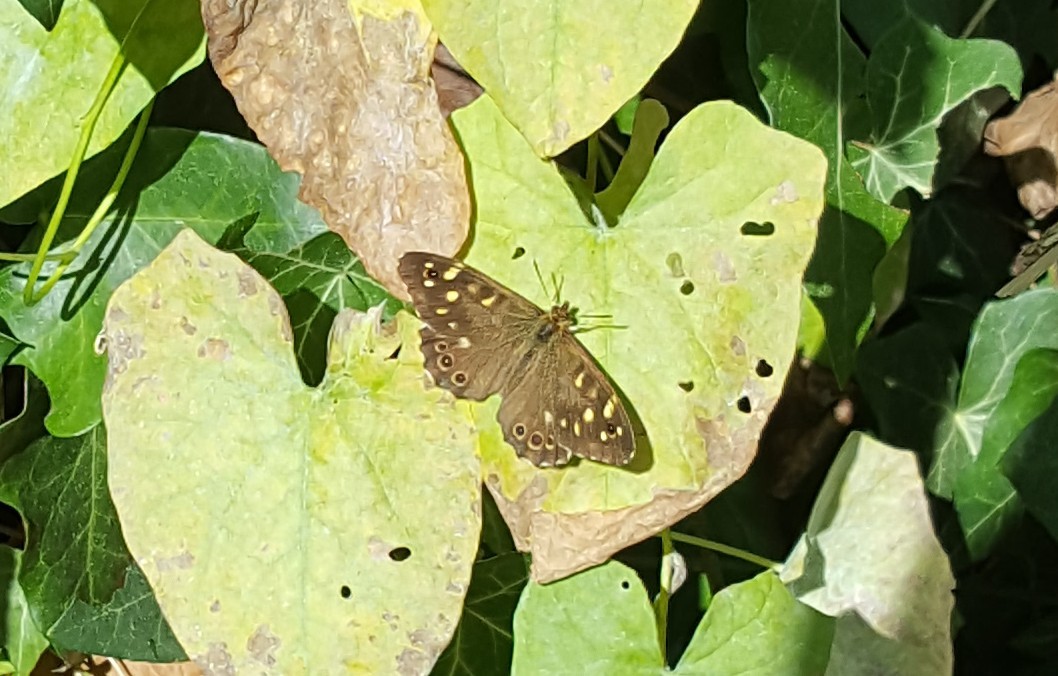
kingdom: Animalia
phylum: Arthropoda
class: Insecta
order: Lepidoptera
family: Nymphalidae
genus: Pararge
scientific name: Pararge aegeria
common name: Speckled wood
